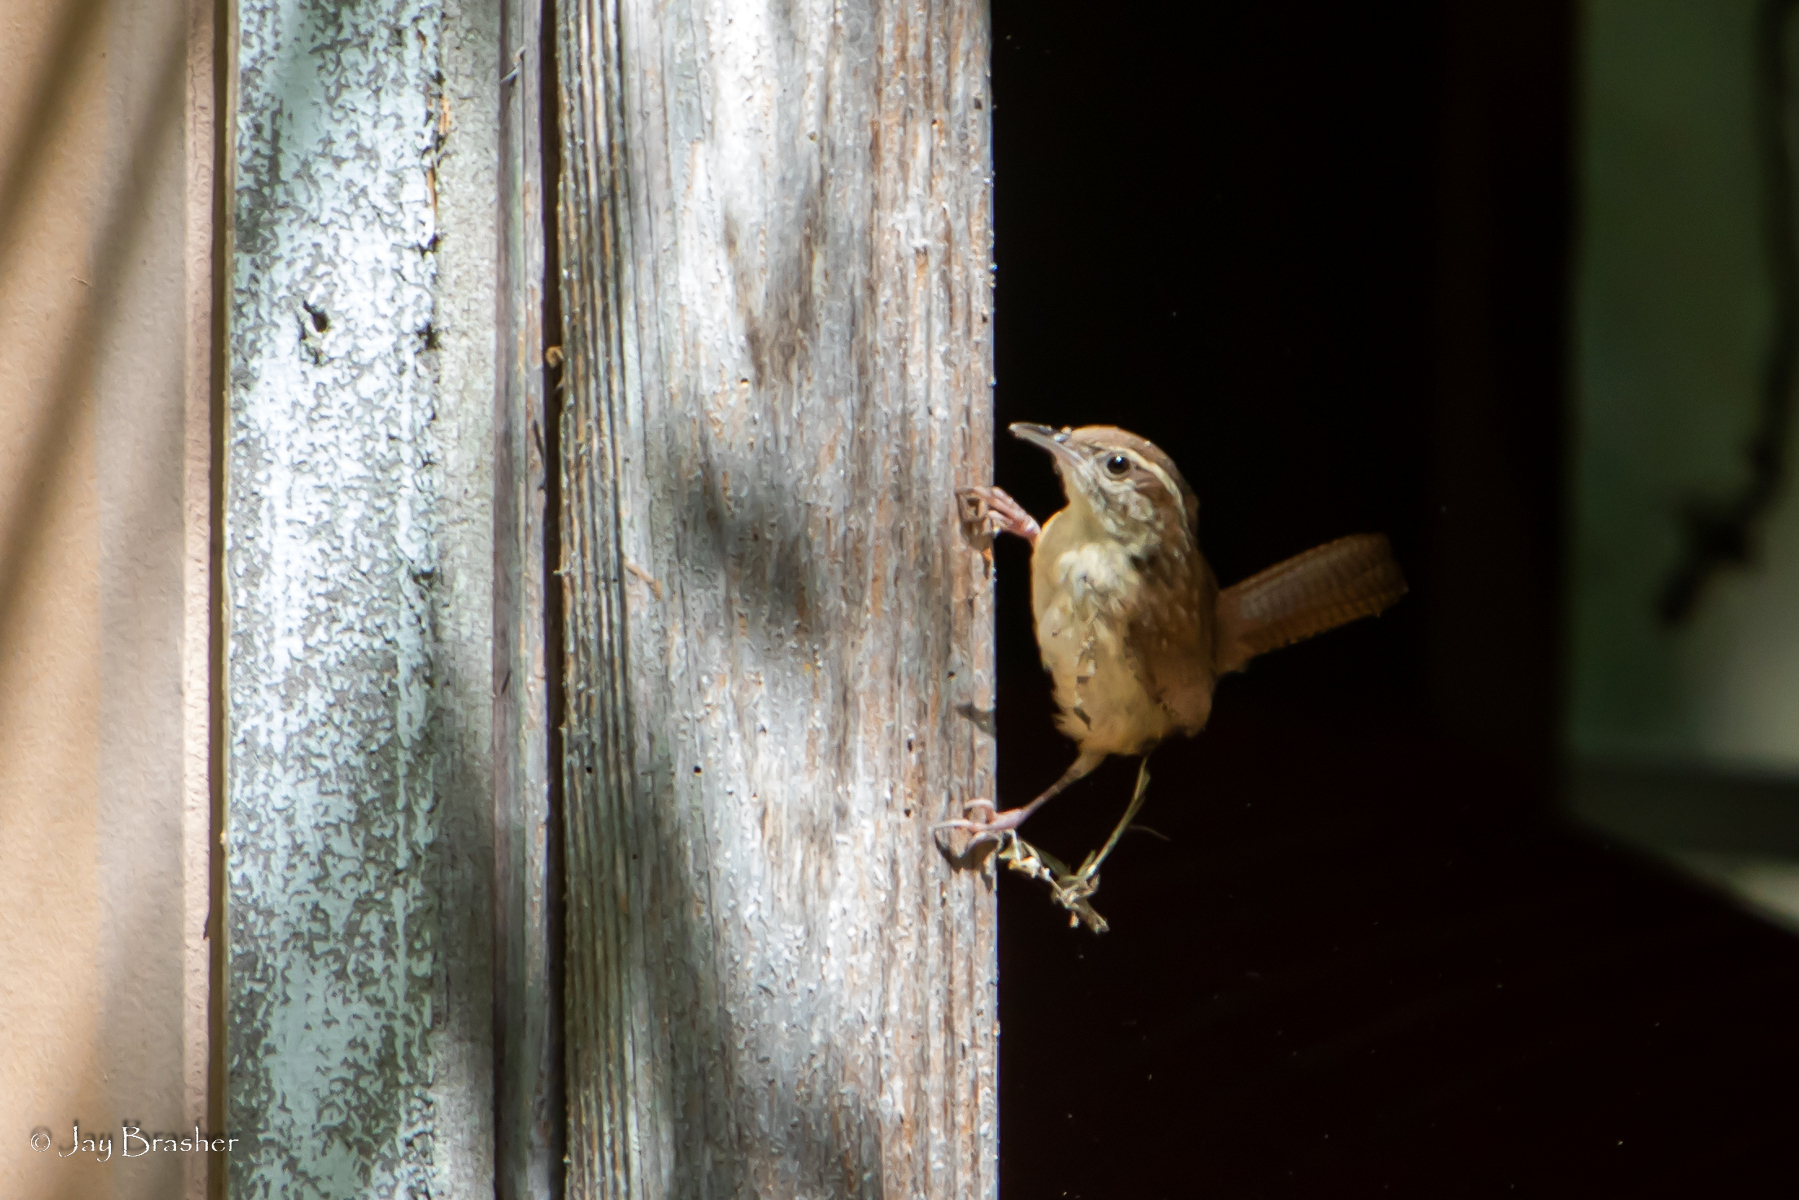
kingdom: Animalia
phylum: Chordata
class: Aves
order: Passeriformes
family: Troglodytidae
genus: Thryothorus
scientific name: Thryothorus ludovicianus
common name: Carolina wren
